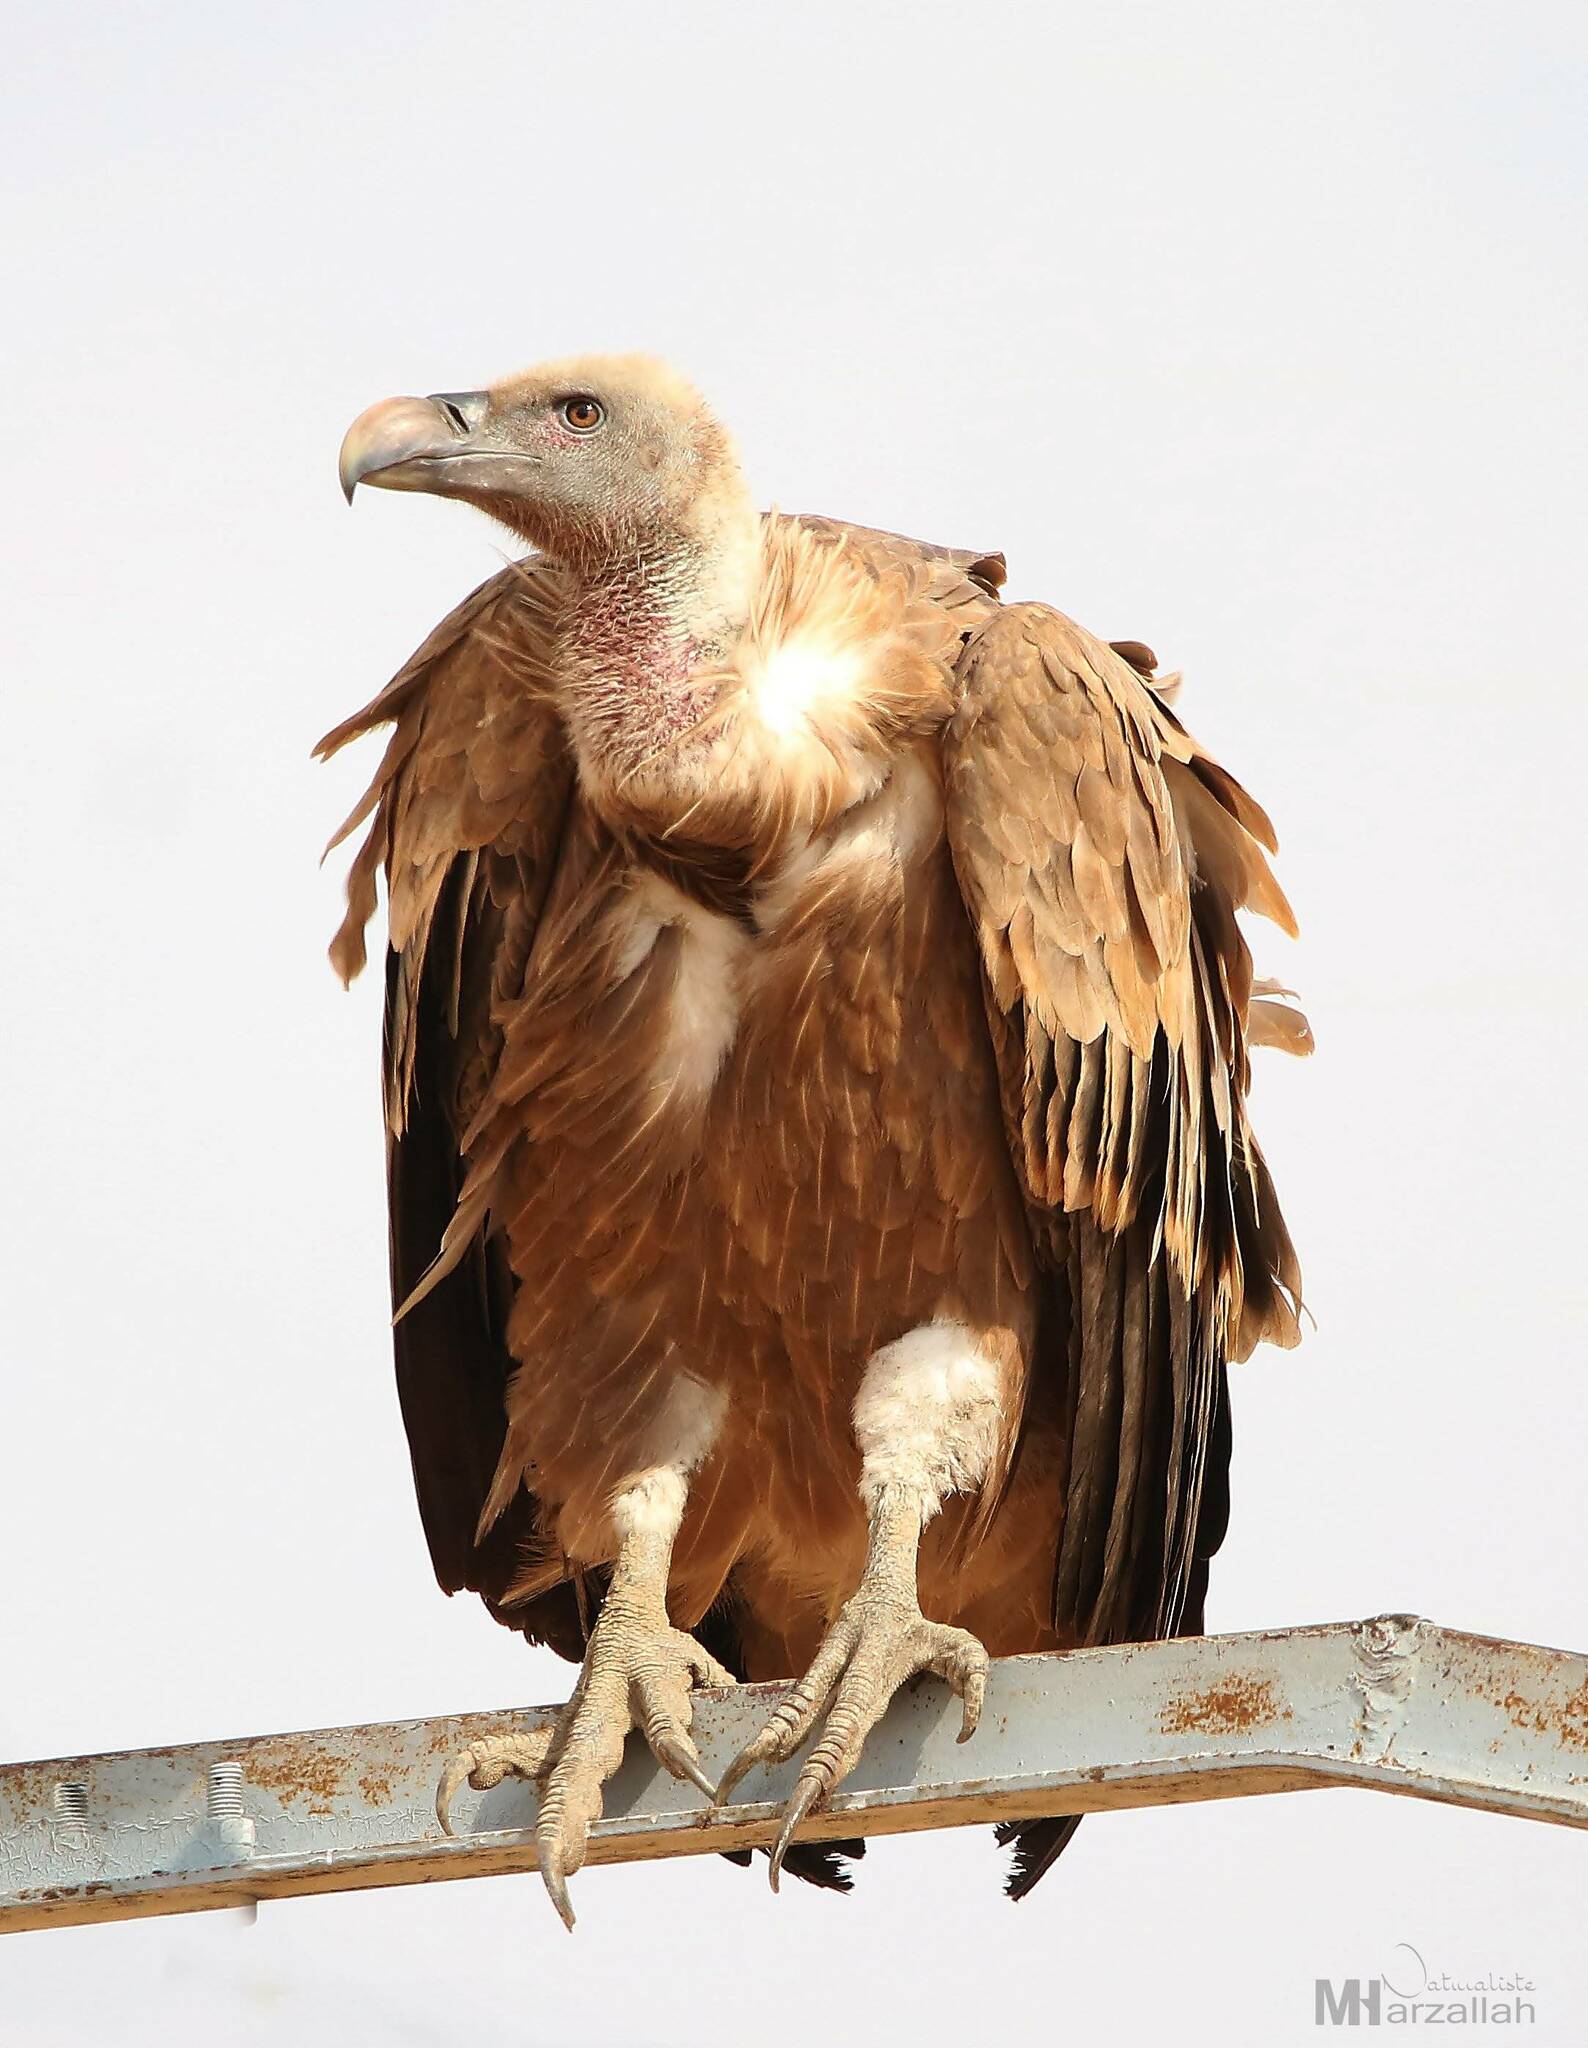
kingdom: Animalia
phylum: Chordata
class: Aves
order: Accipitriformes
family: Accipitridae
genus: Gyps
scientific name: Gyps fulvus
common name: Griffon vulture
